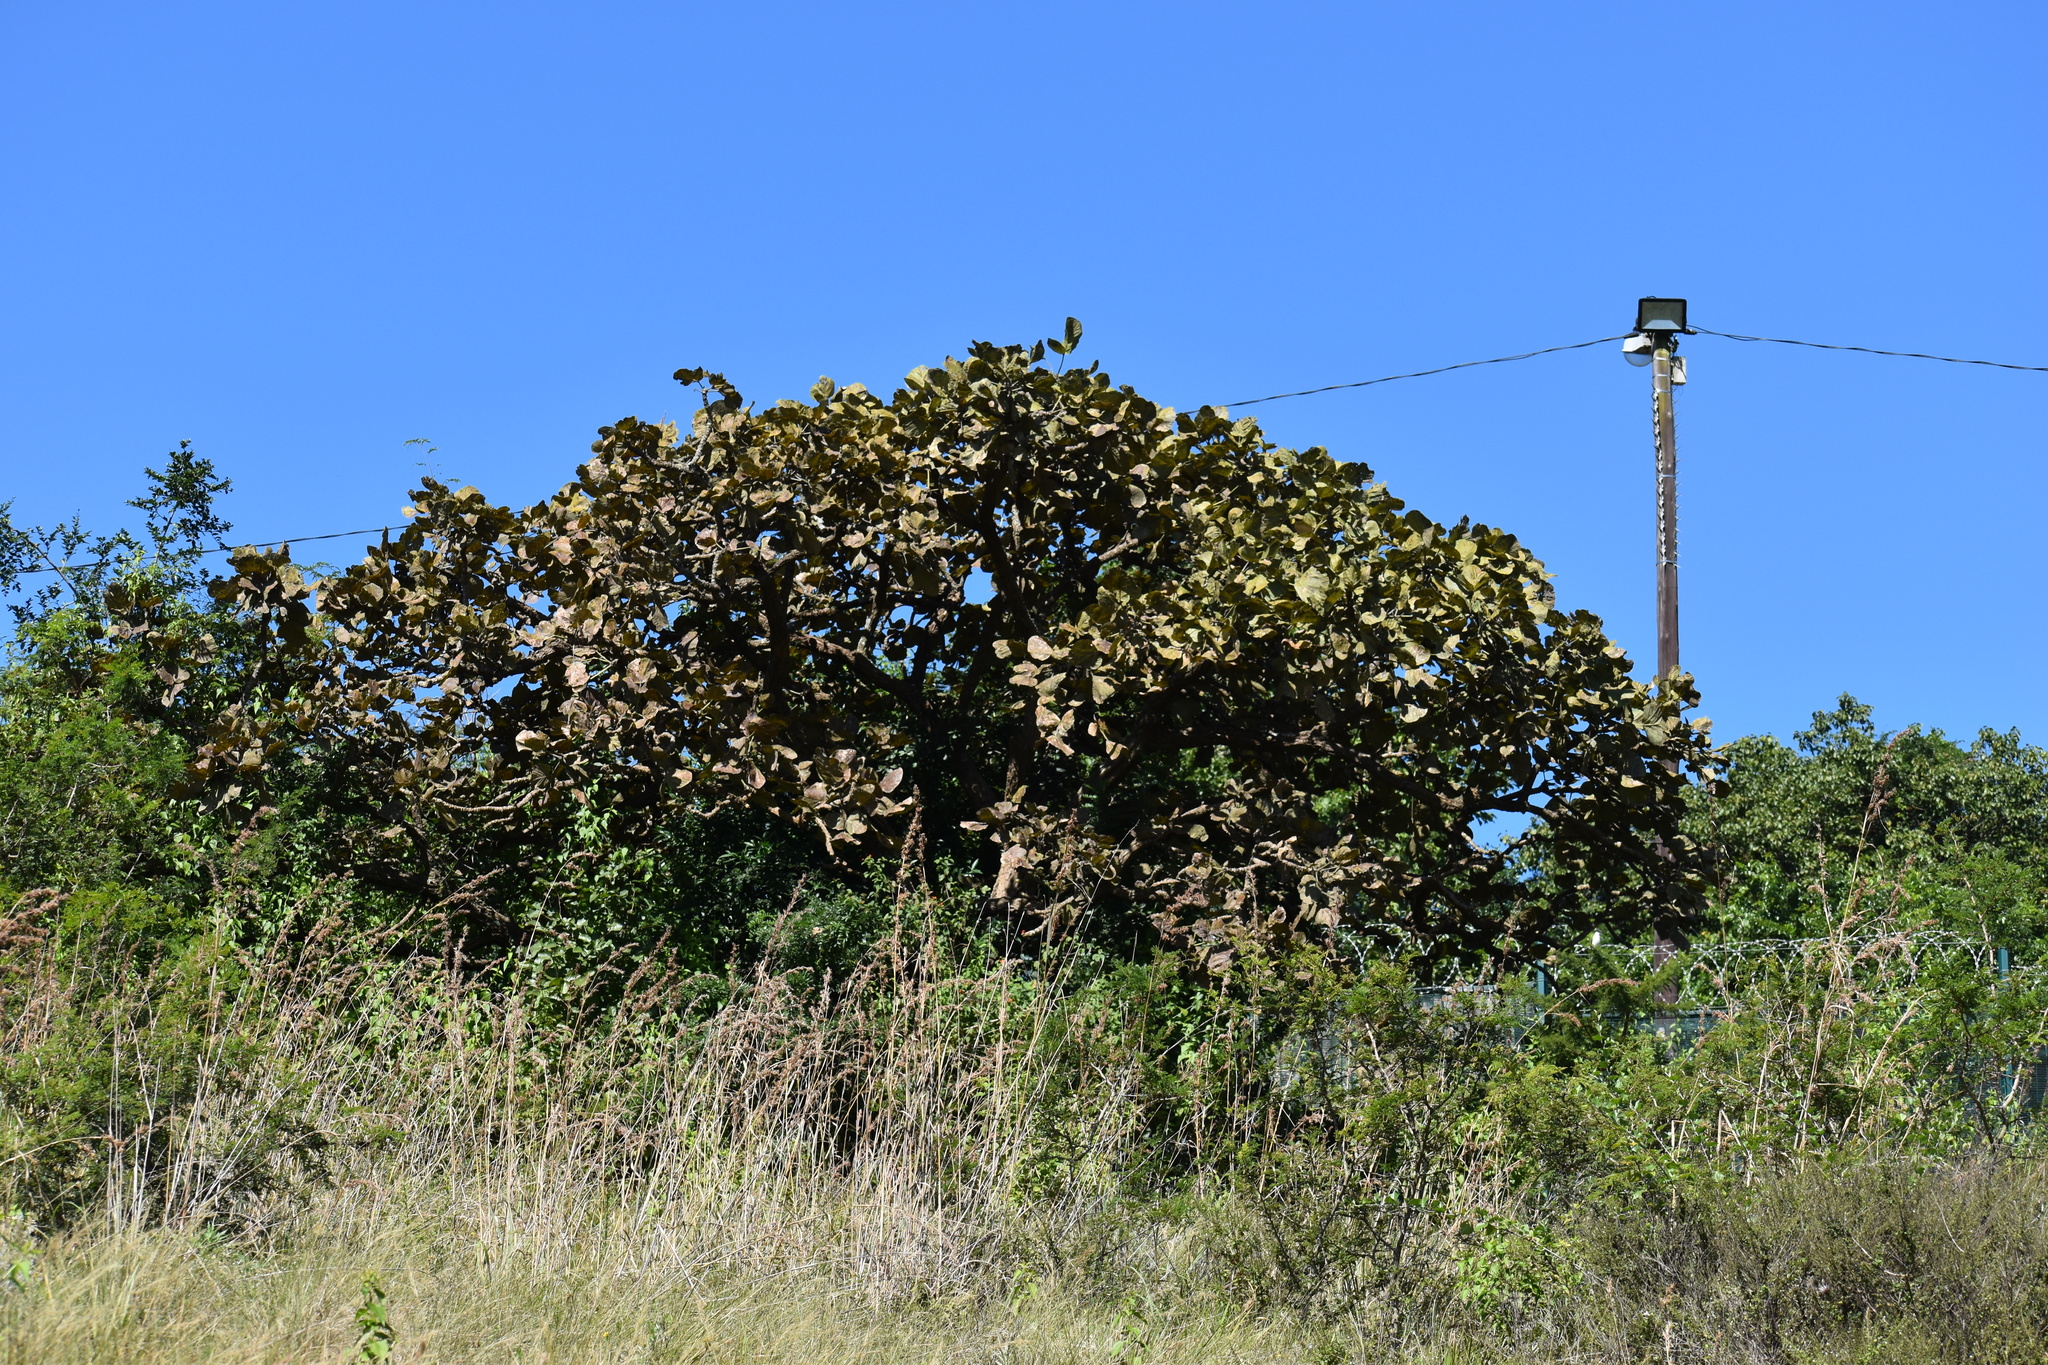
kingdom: Plantae
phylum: Tracheophyta
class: Magnoliopsida
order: Fabales
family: Fabaceae
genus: Erythrina
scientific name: Erythrina latissima
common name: Broad-leaved coral tree
